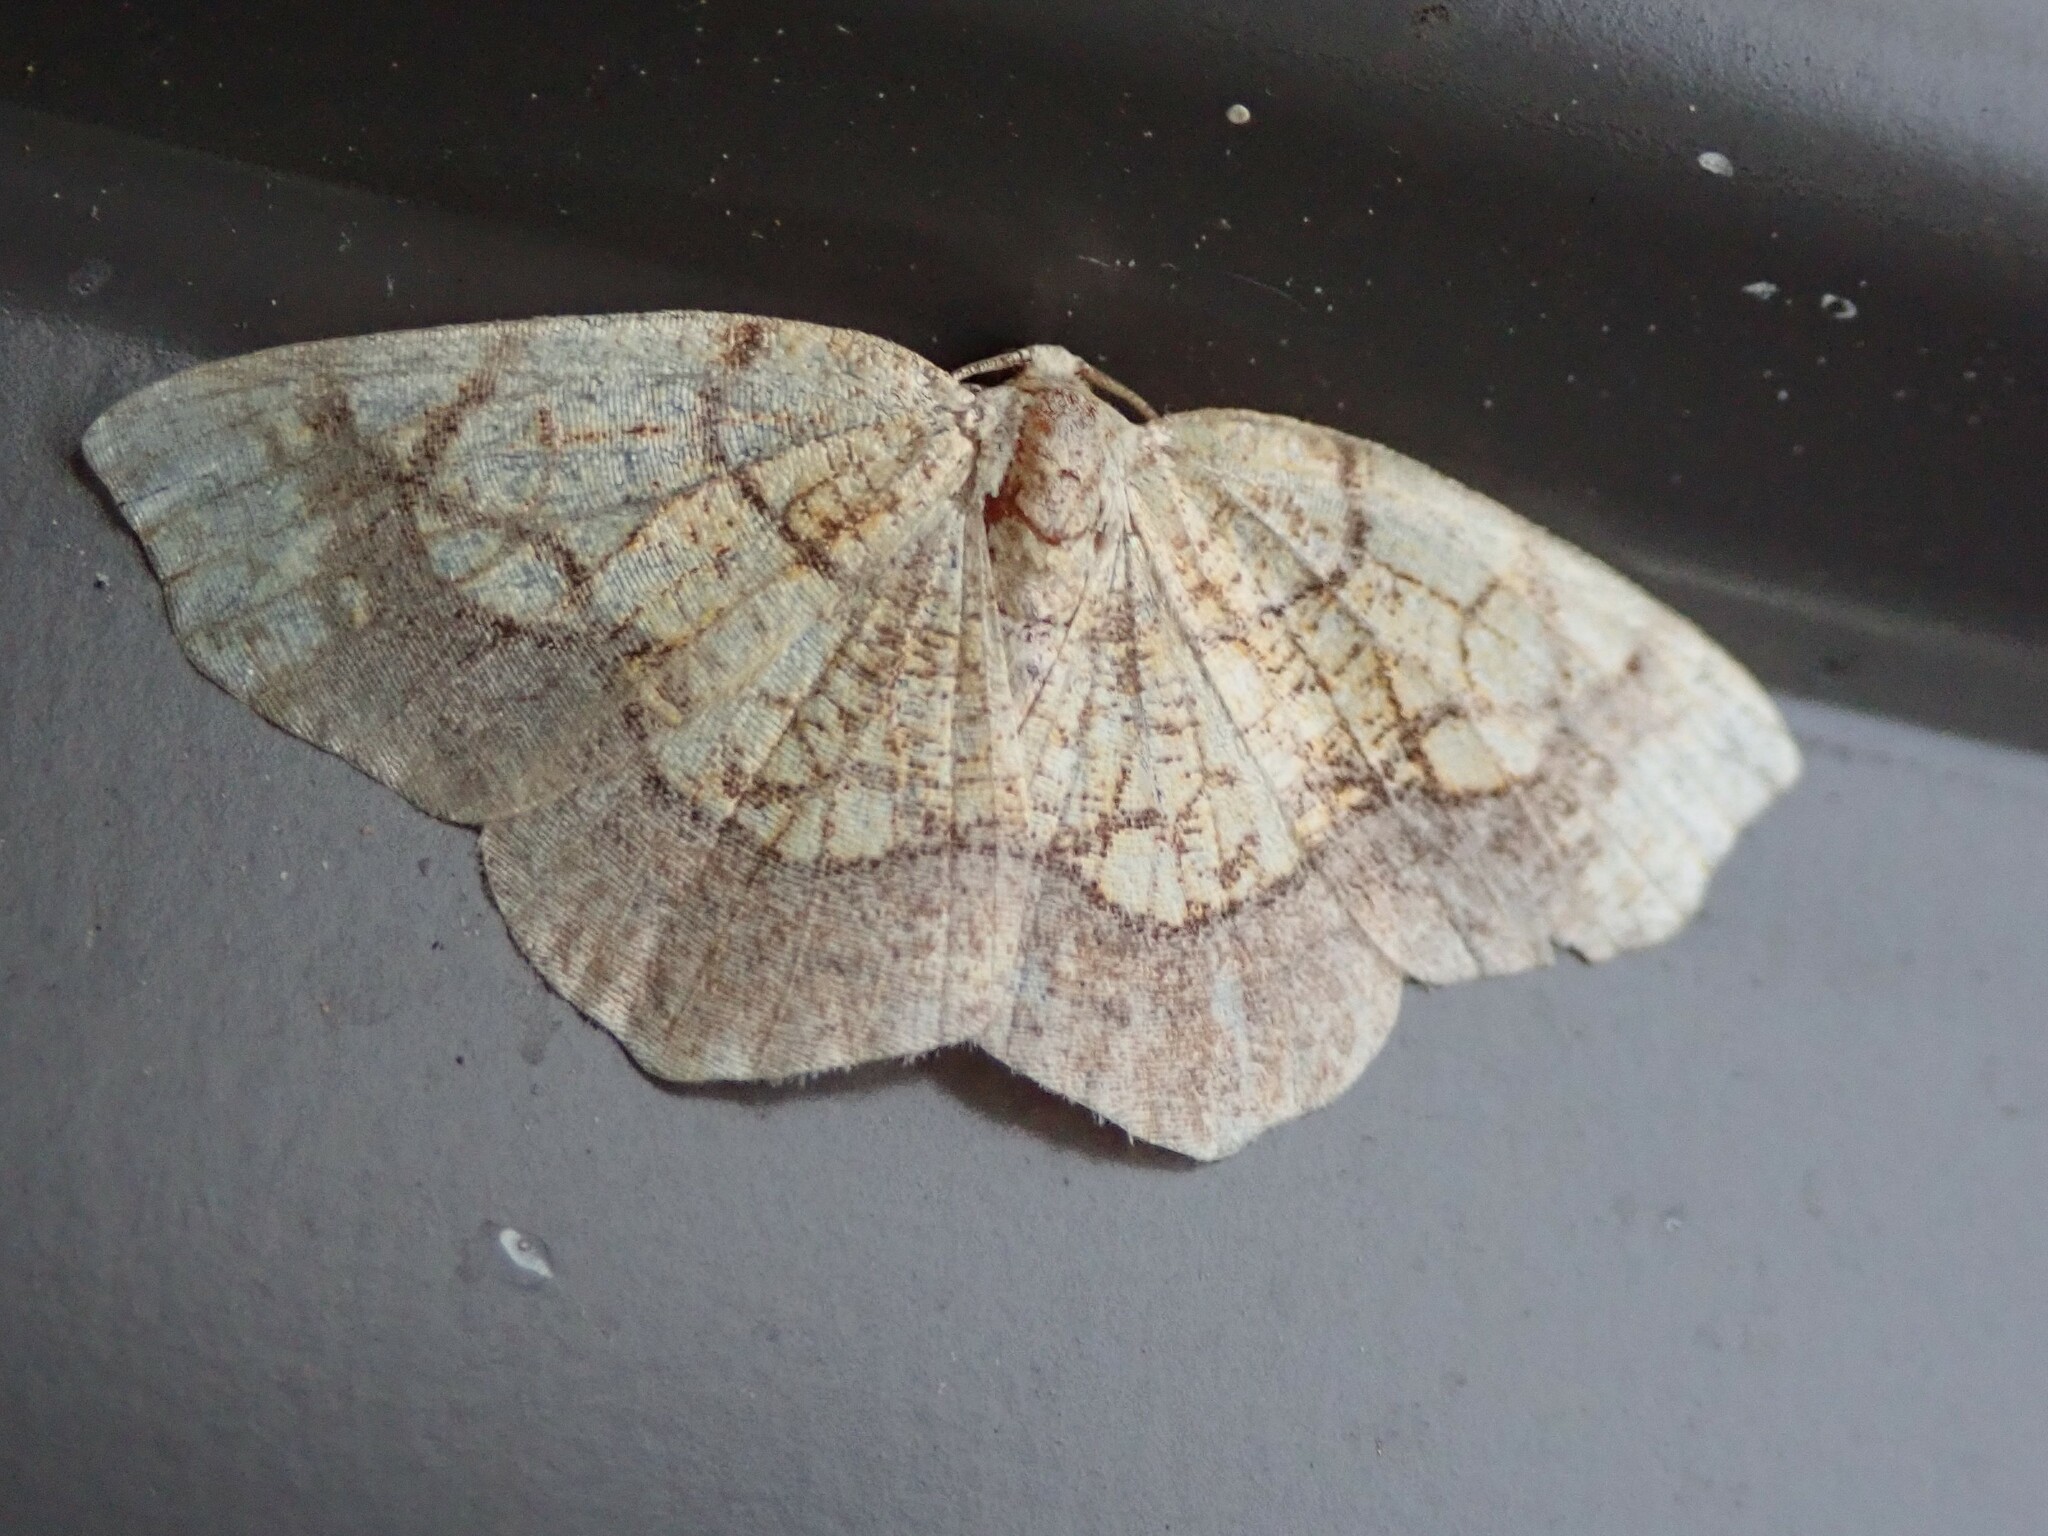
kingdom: Animalia
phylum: Arthropoda
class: Insecta
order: Lepidoptera
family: Geometridae
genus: Nematocampa
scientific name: Nematocampa resistaria
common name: Horned spanworm moth
